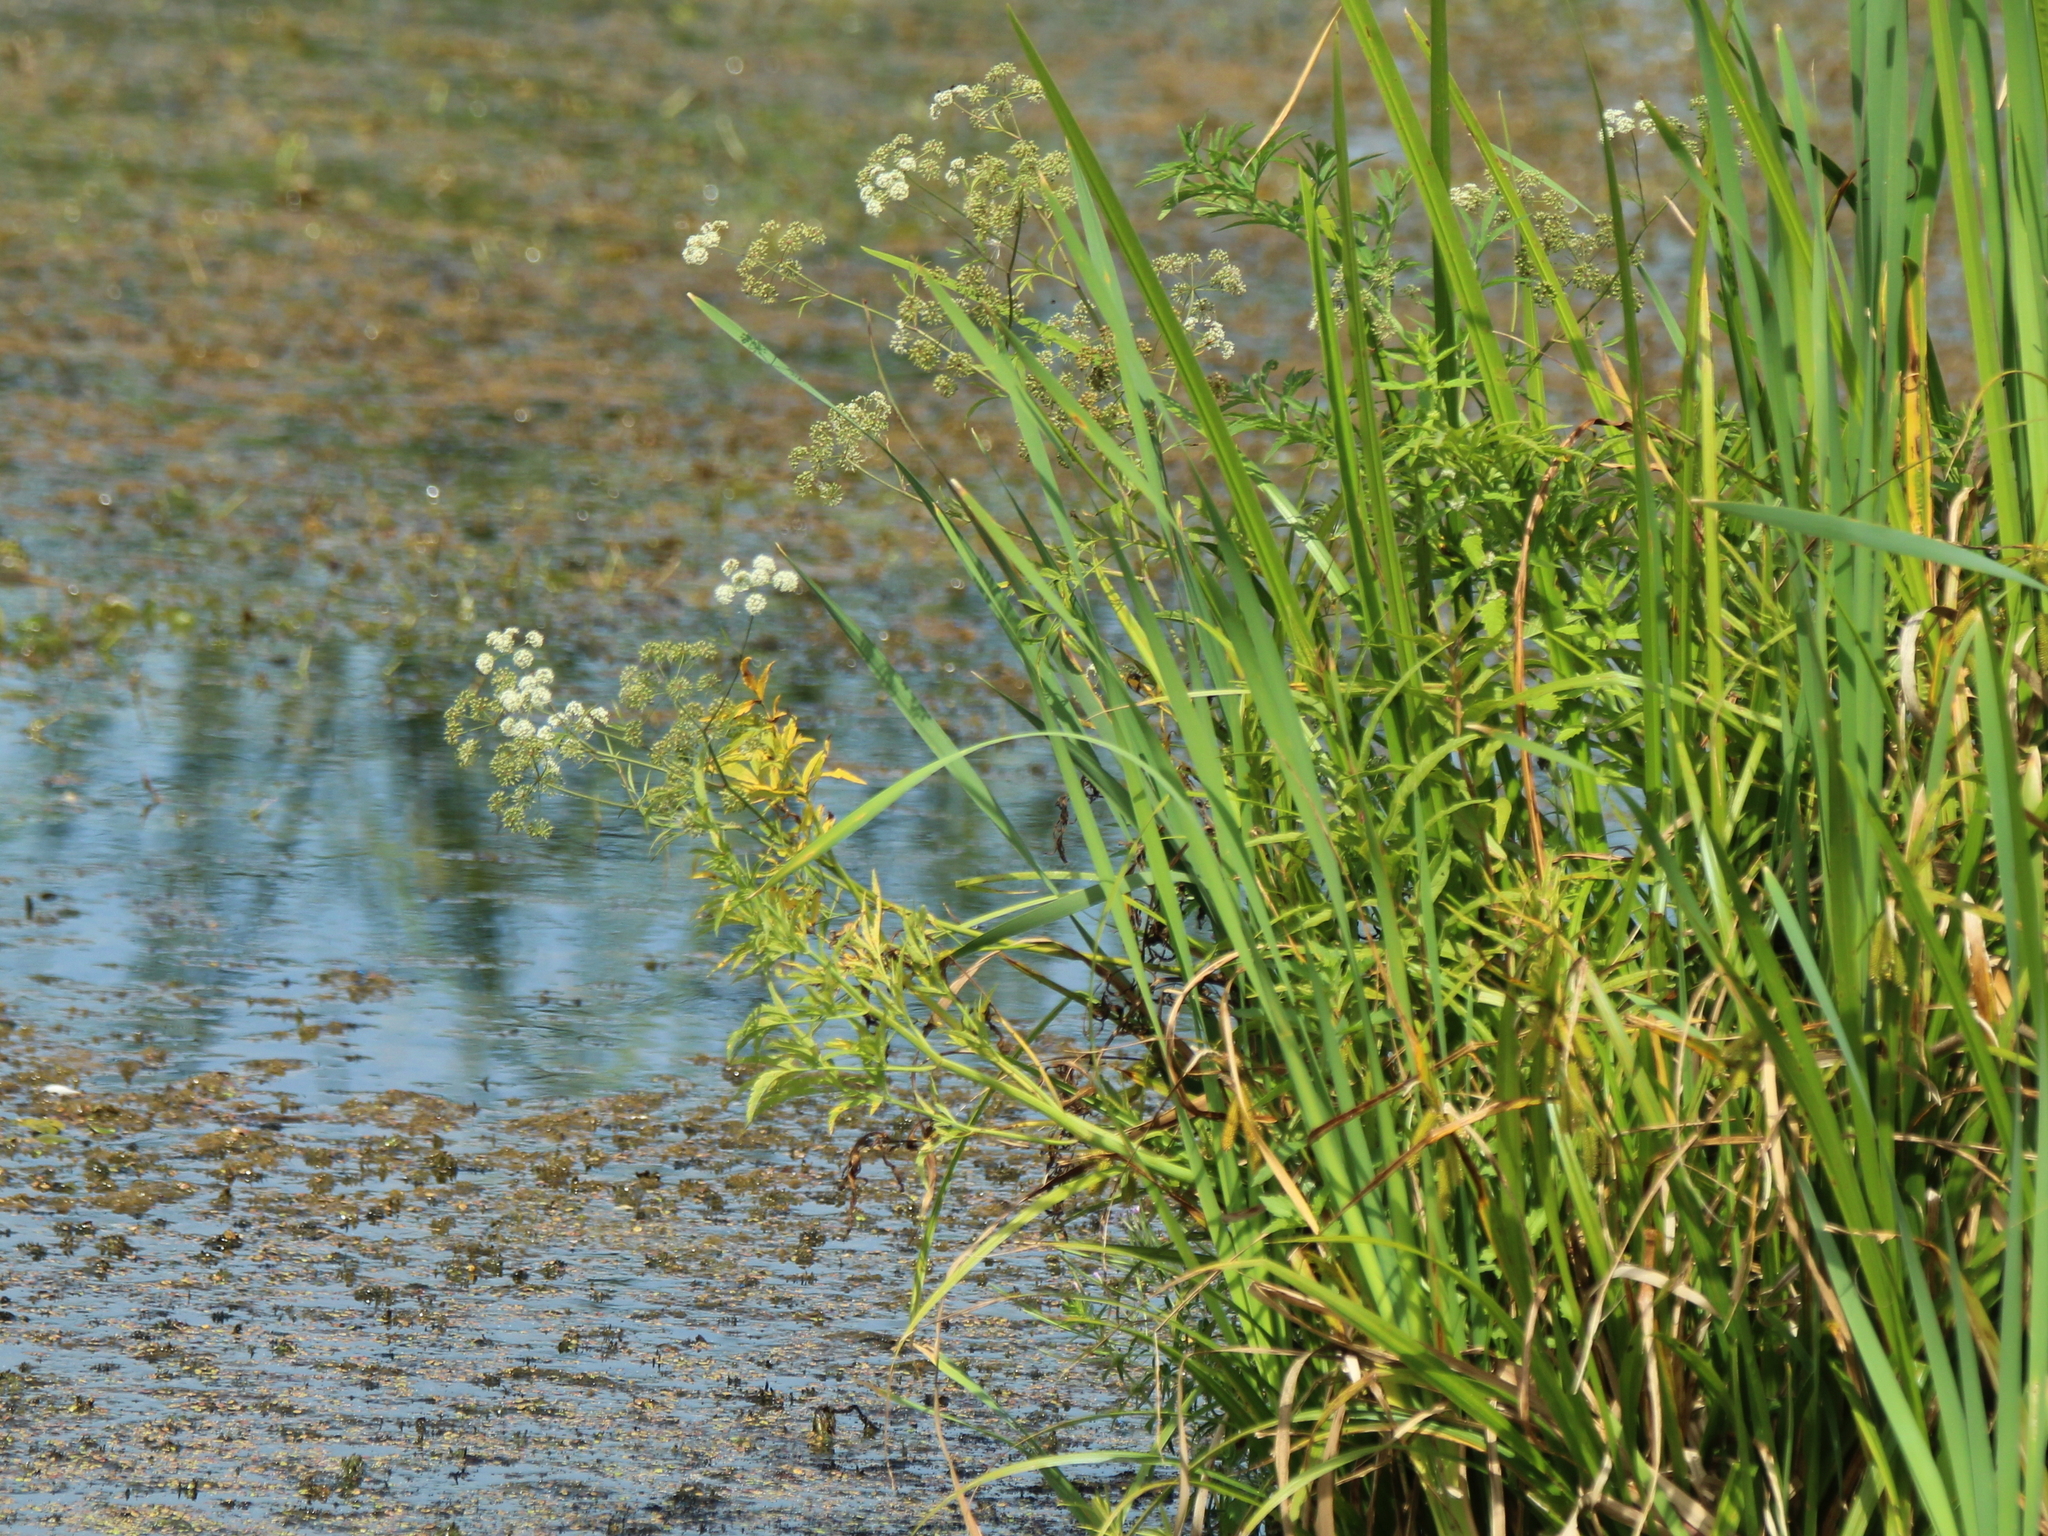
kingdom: Plantae
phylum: Tracheophyta
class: Magnoliopsida
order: Apiales
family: Apiaceae
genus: Cicuta
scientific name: Cicuta virosa
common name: Cowbane
